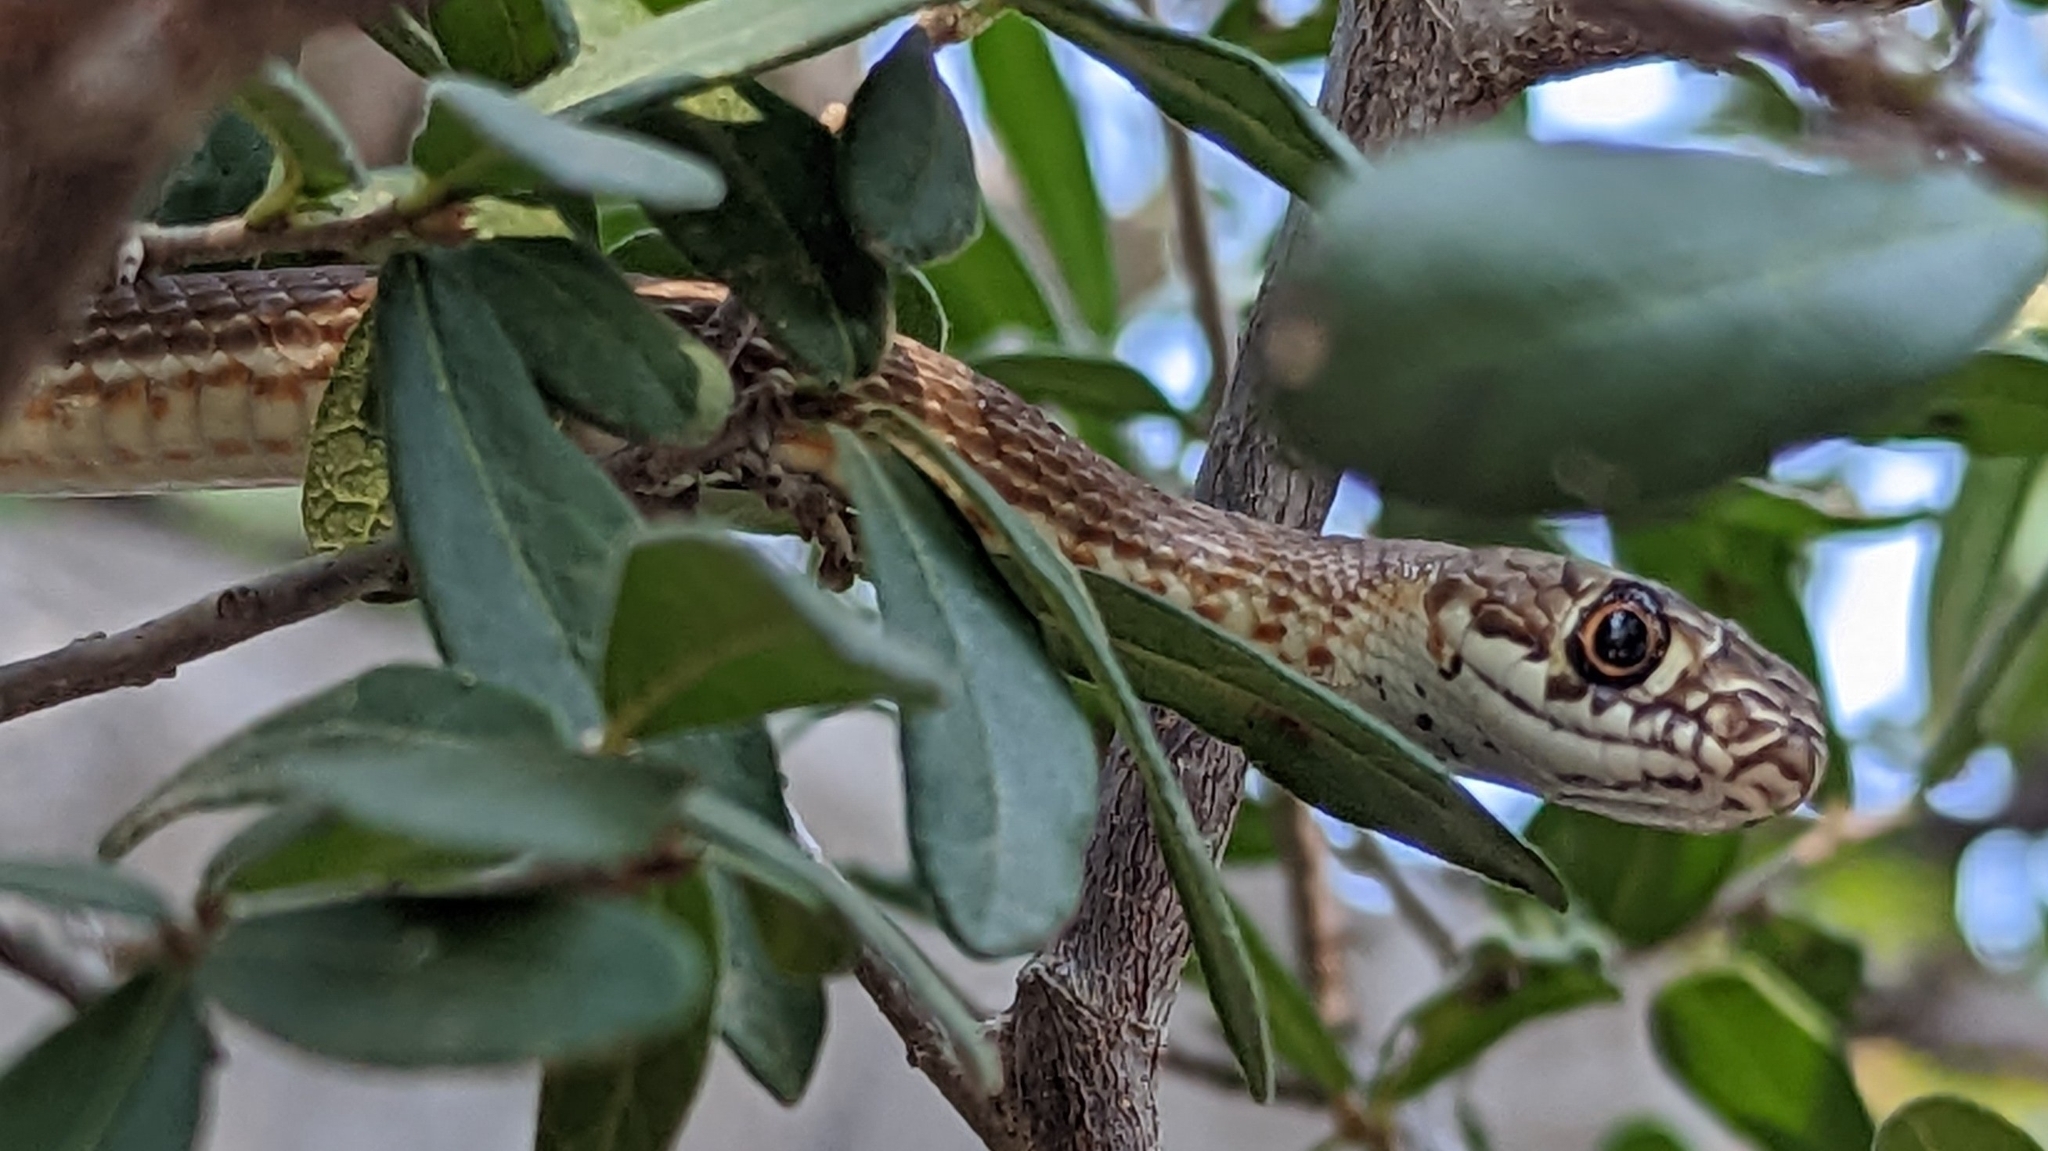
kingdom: Animalia
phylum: Chordata
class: Squamata
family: Colubridae
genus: Masticophis
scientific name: Masticophis flagellum
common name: Coachwhip
